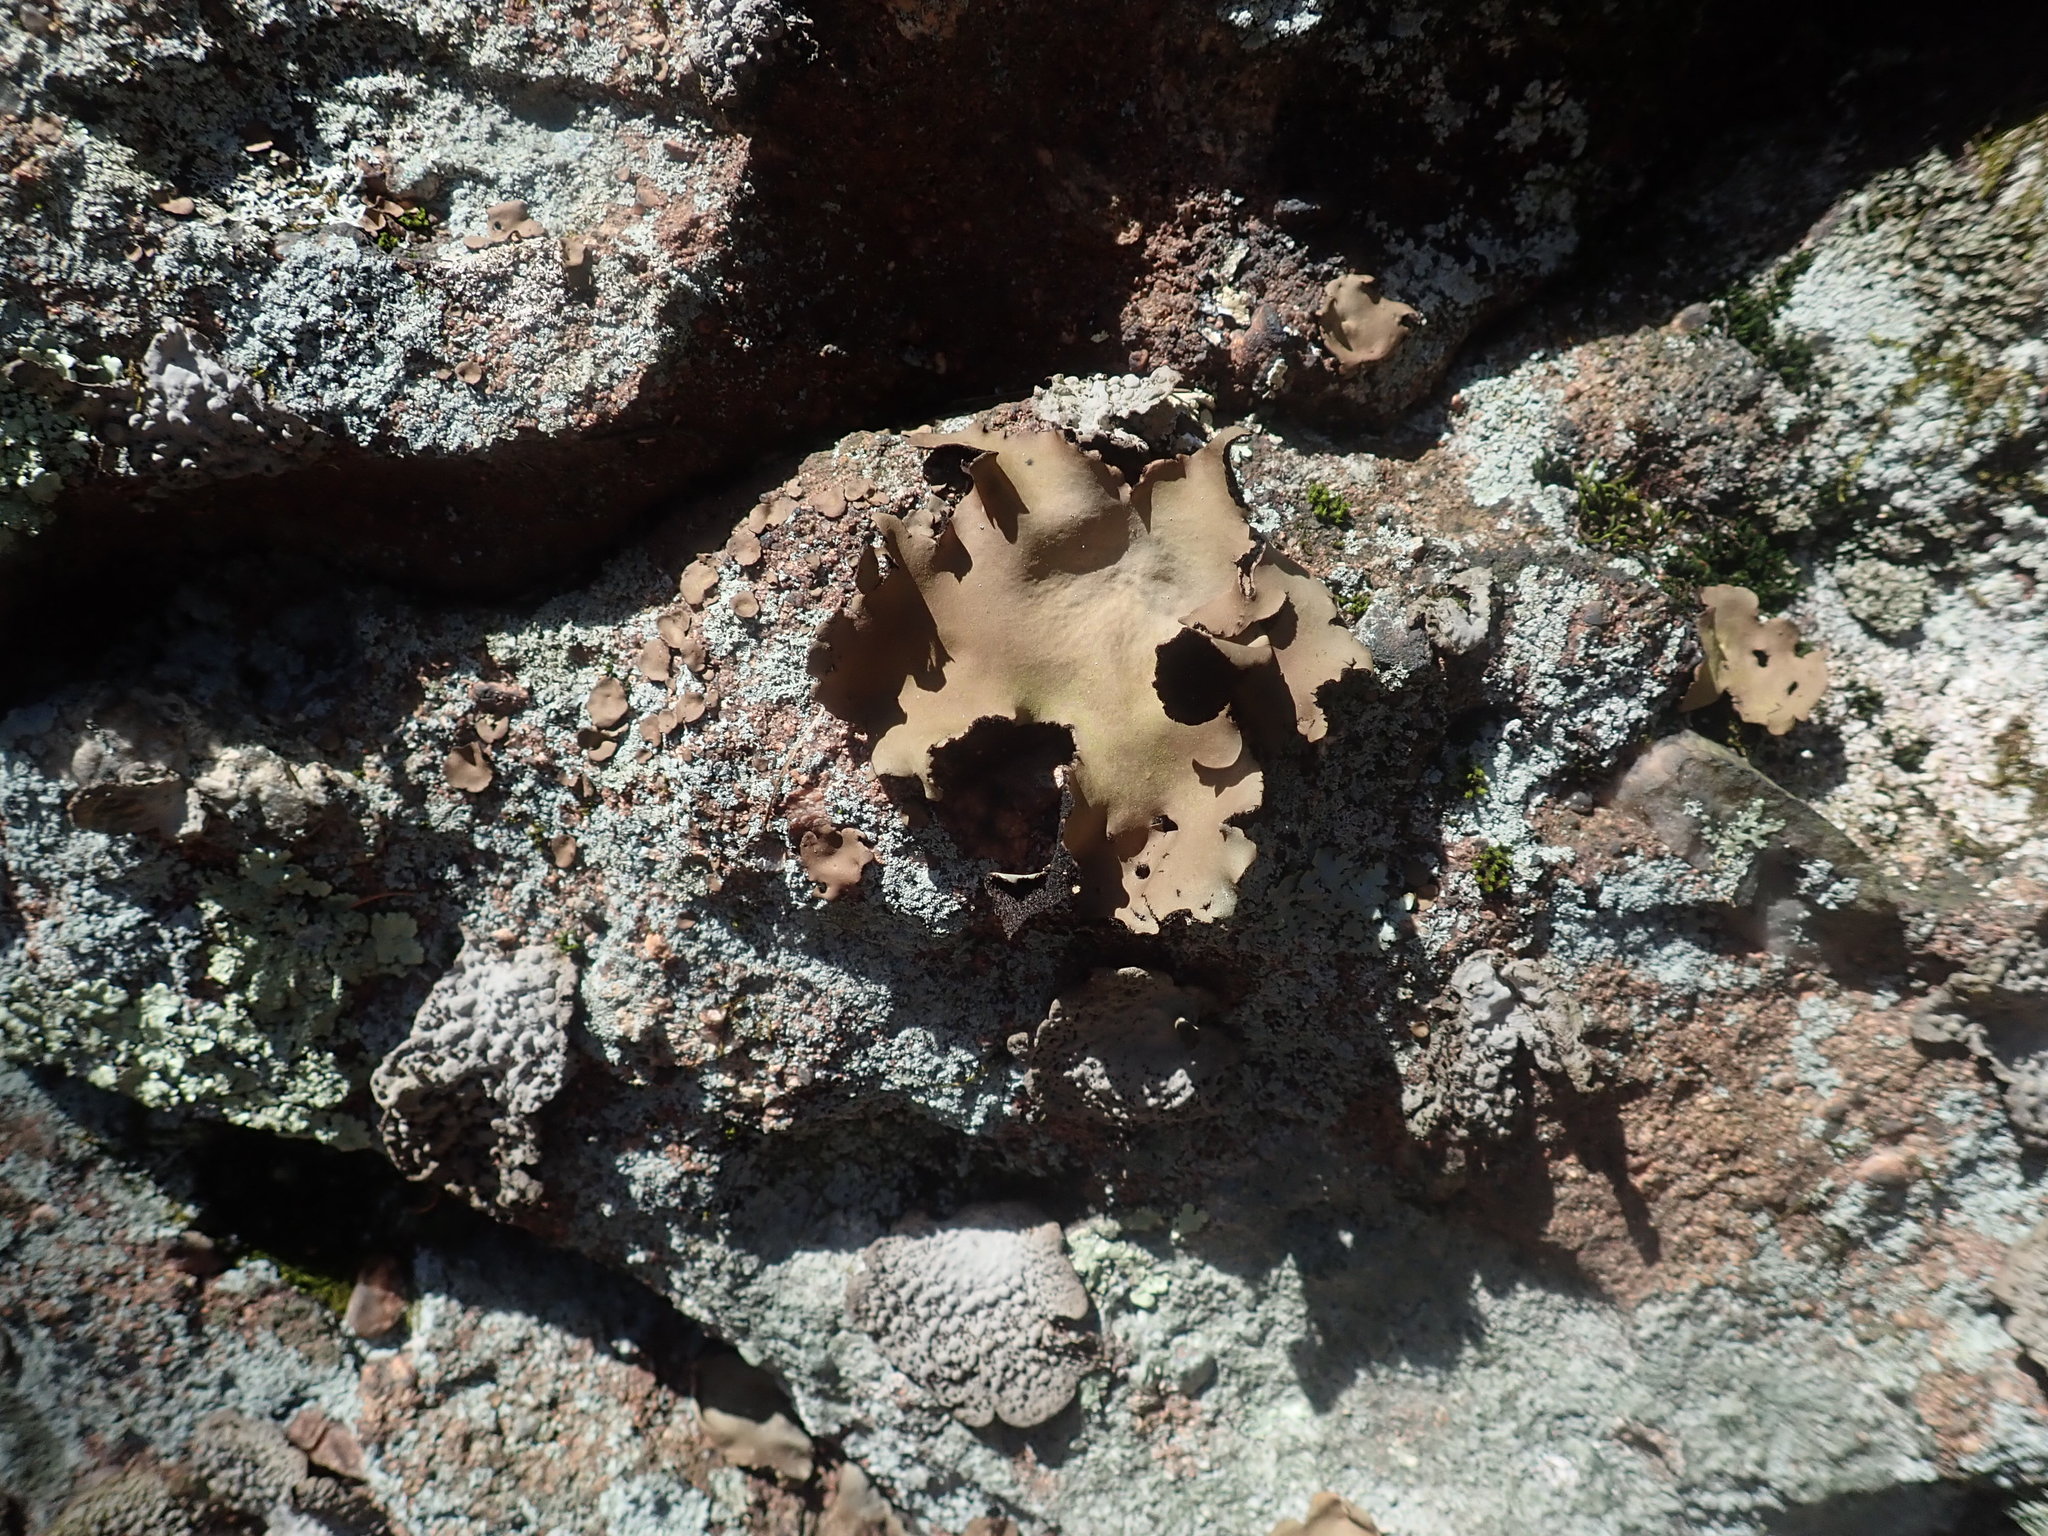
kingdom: Fungi
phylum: Ascomycota
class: Lecanoromycetes
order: Umbilicariales
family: Umbilicariaceae
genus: Umbilicaria
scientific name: Umbilicaria mammulata
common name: Smooth rock tripe
